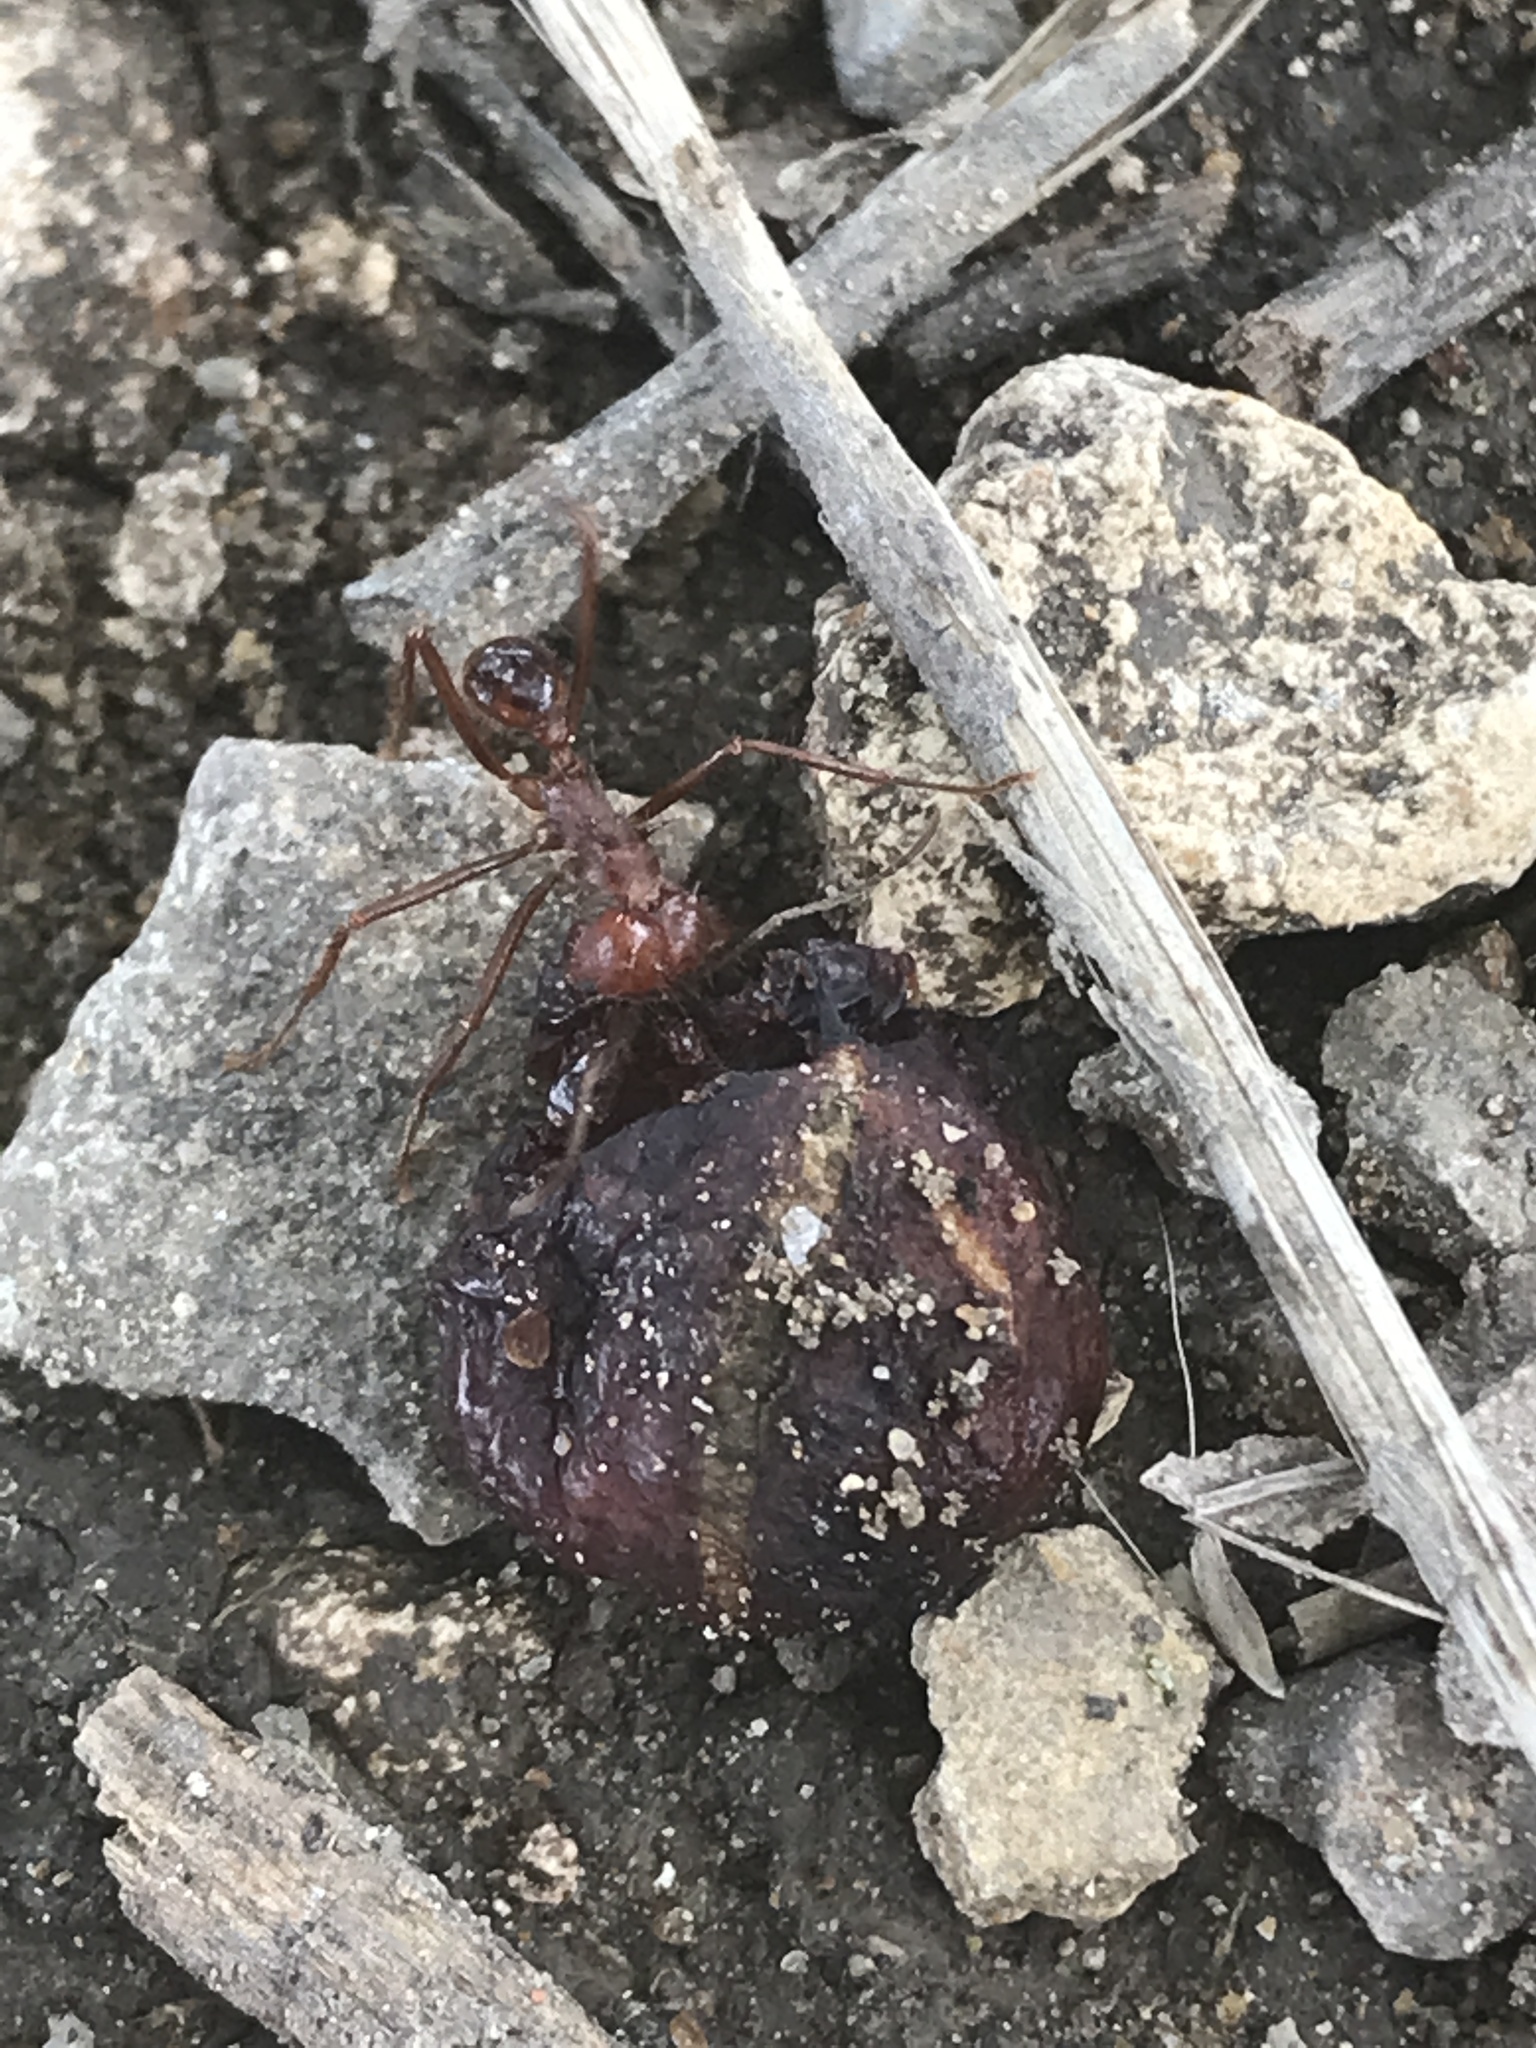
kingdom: Animalia
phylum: Arthropoda
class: Insecta
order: Hymenoptera
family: Formicidae
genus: Atta
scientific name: Atta mexicana
